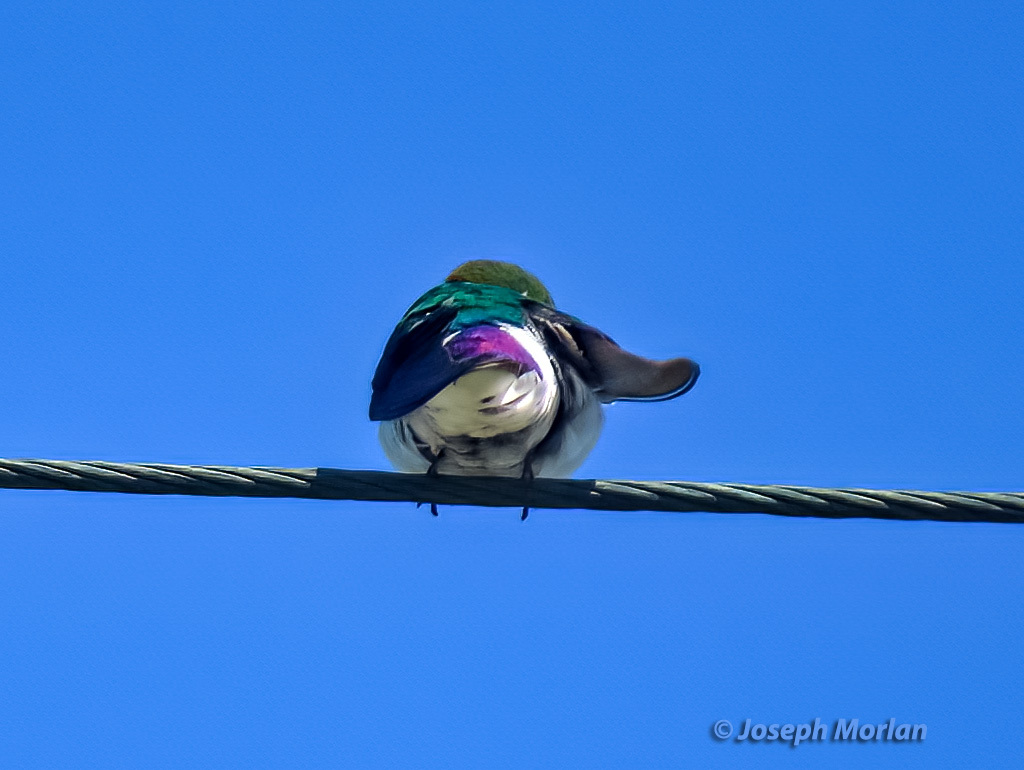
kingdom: Animalia
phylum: Chordata
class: Aves
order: Passeriformes
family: Hirundinidae
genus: Tachycineta
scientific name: Tachycineta thalassina
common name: Violet-green swallow
